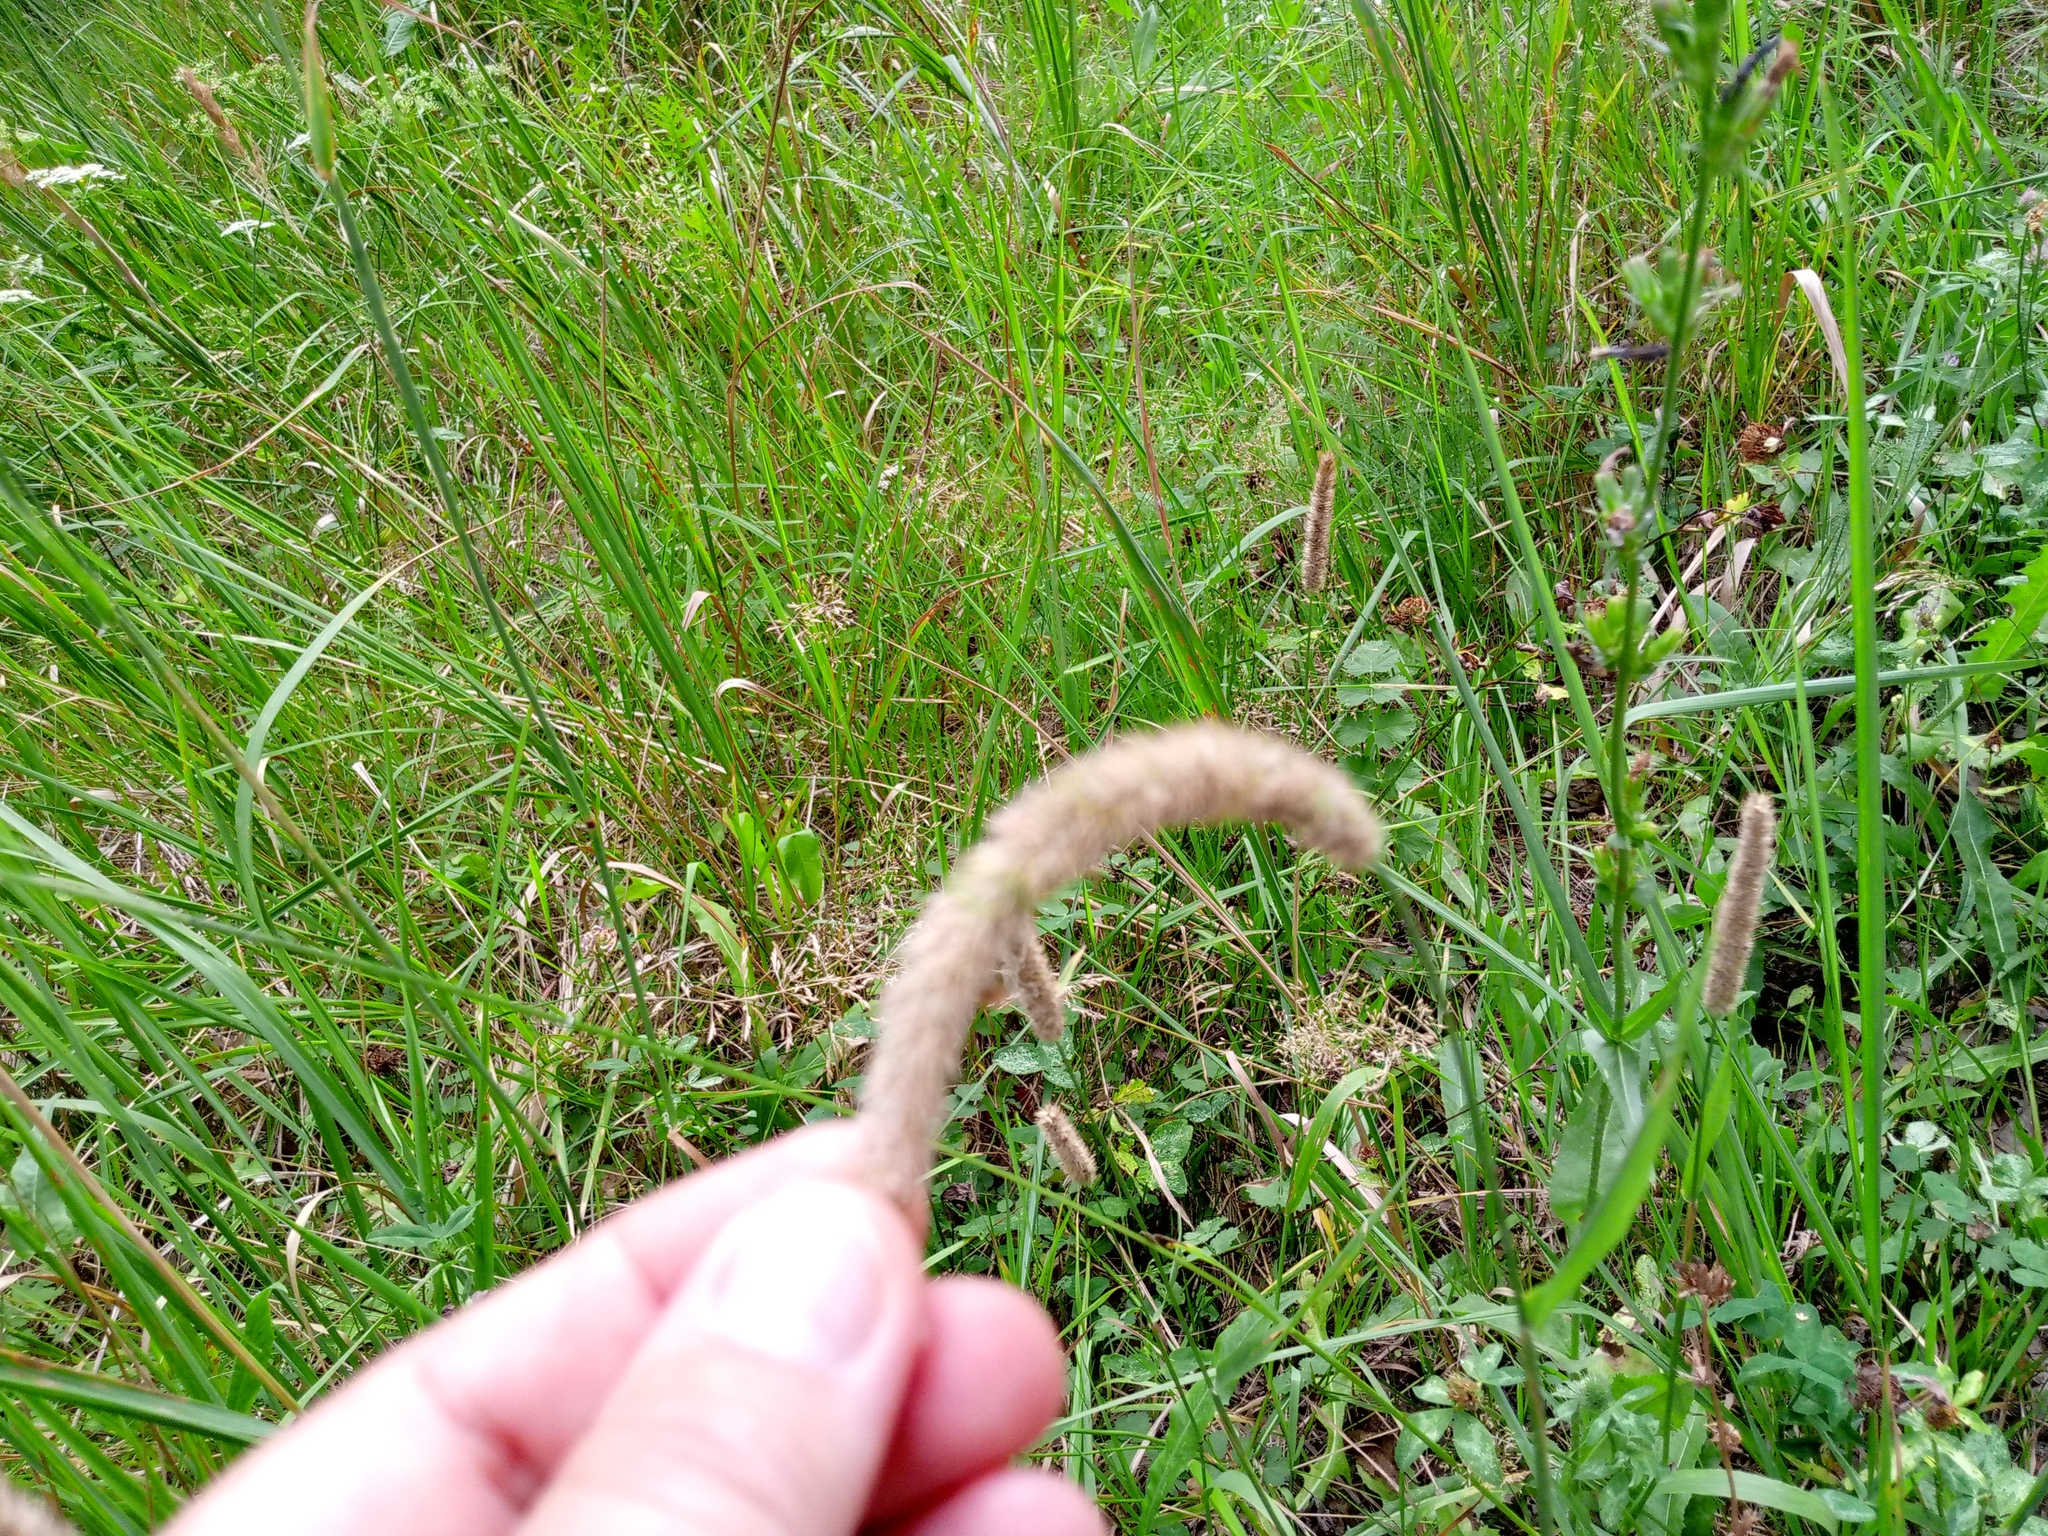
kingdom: Plantae
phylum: Tracheophyta
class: Liliopsida
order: Poales
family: Poaceae
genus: Phleum
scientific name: Phleum pratense
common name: Timothy grass
